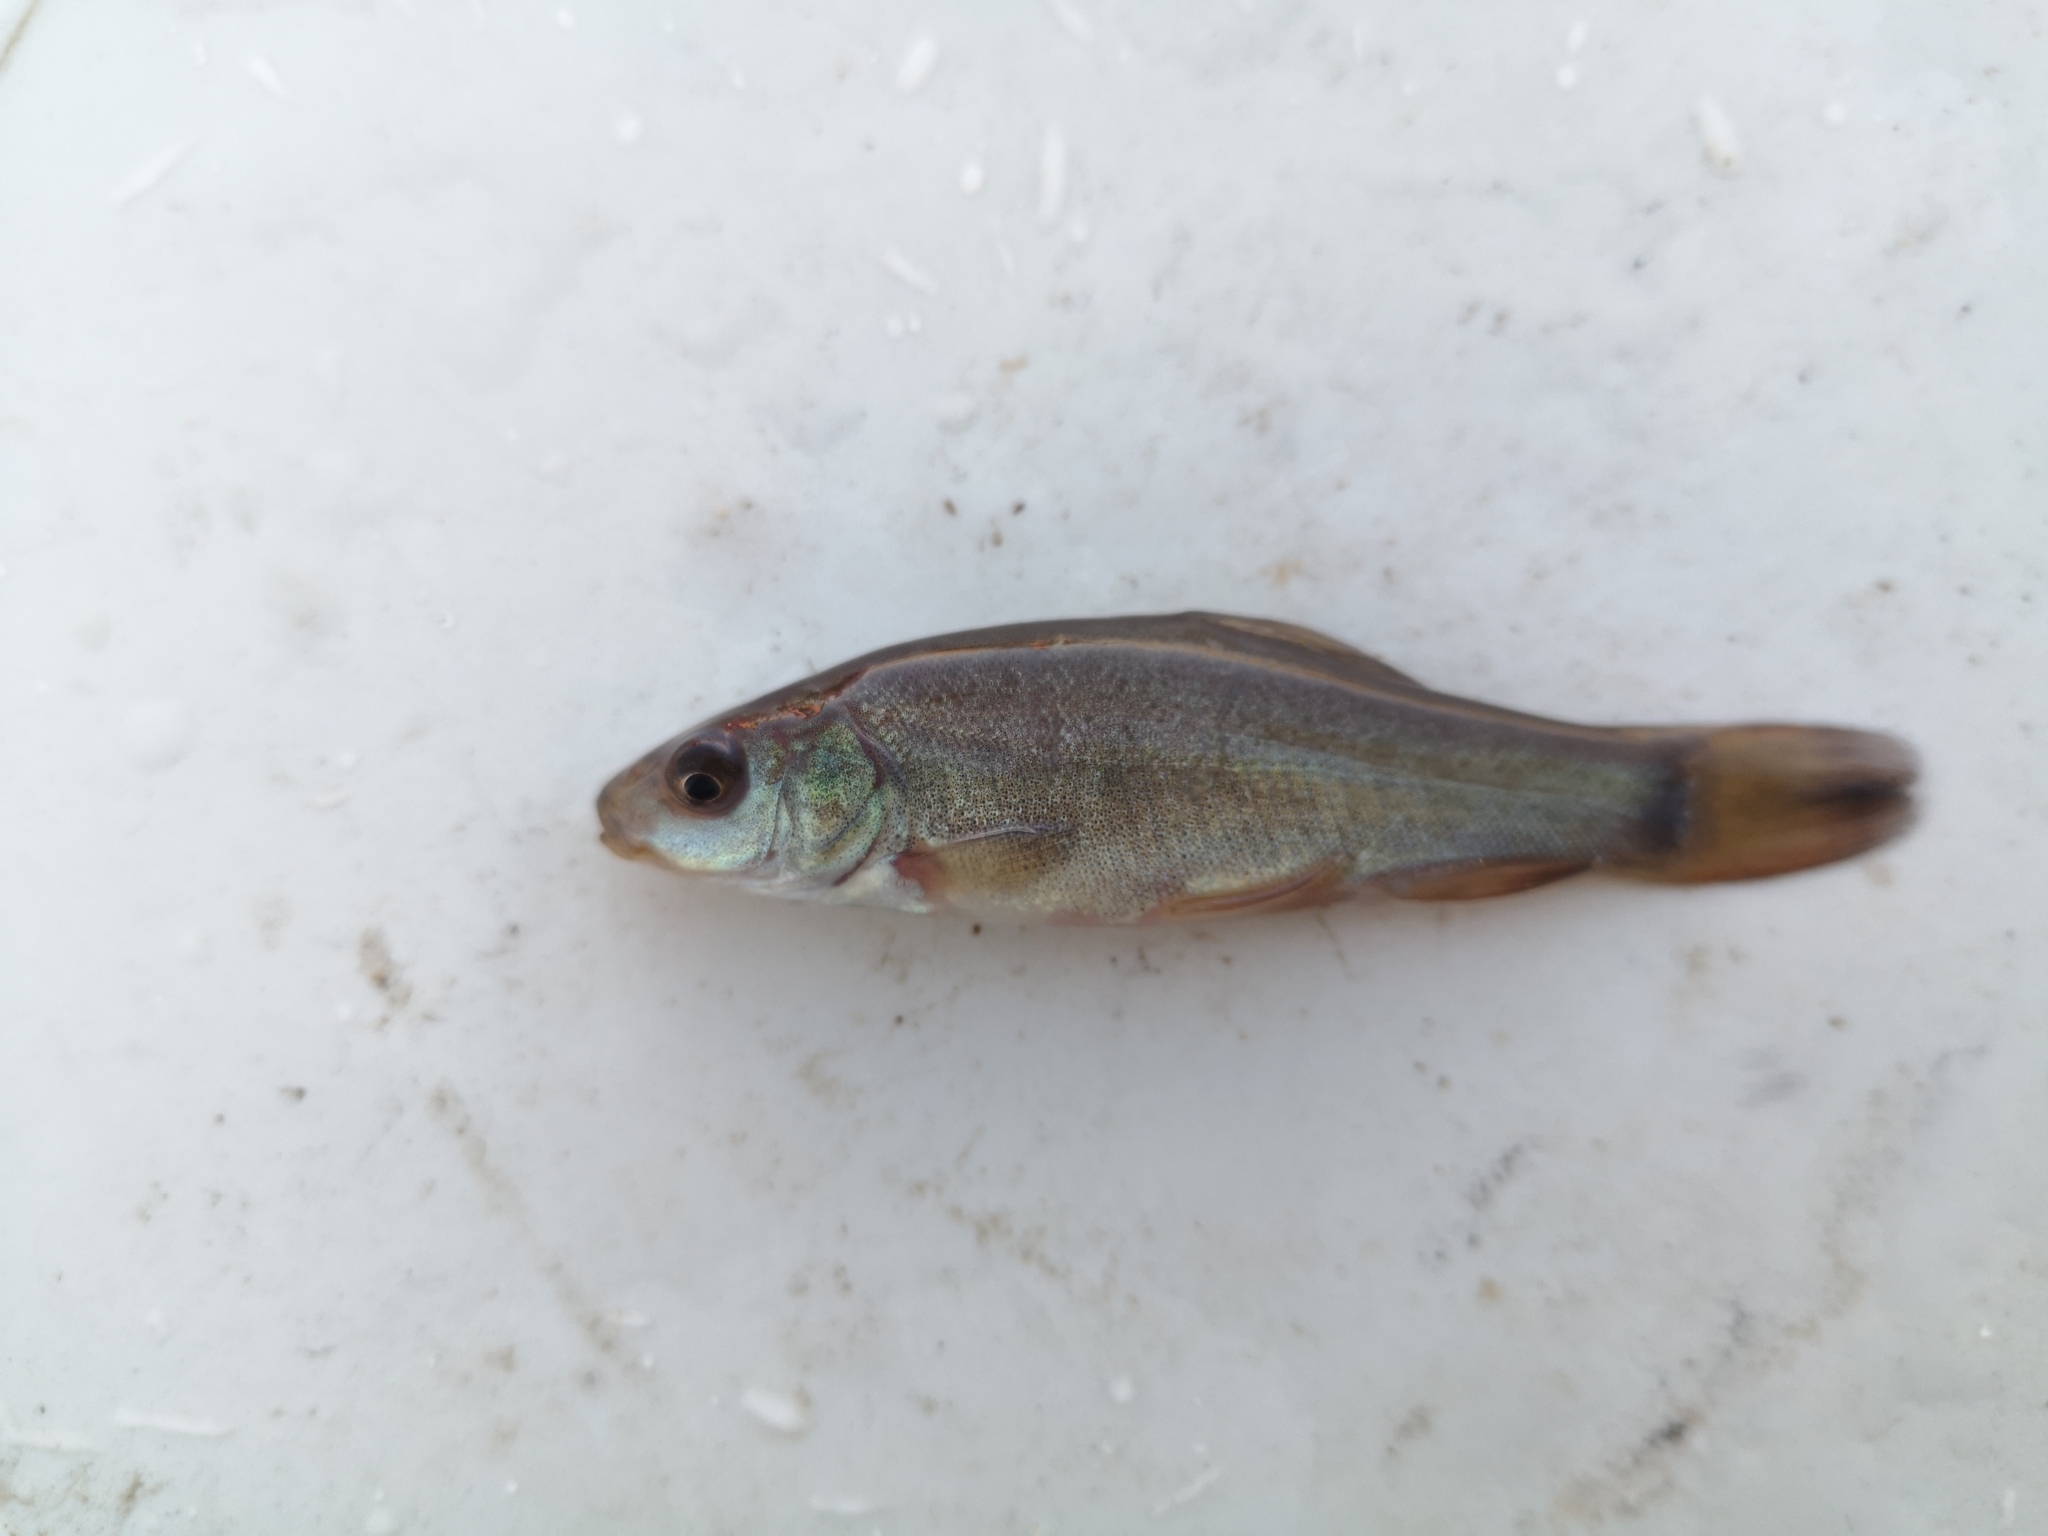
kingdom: Animalia
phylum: Chordata
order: Cypriniformes
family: Cyprinidae
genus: Tinca
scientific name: Tinca tinca
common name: Tench
